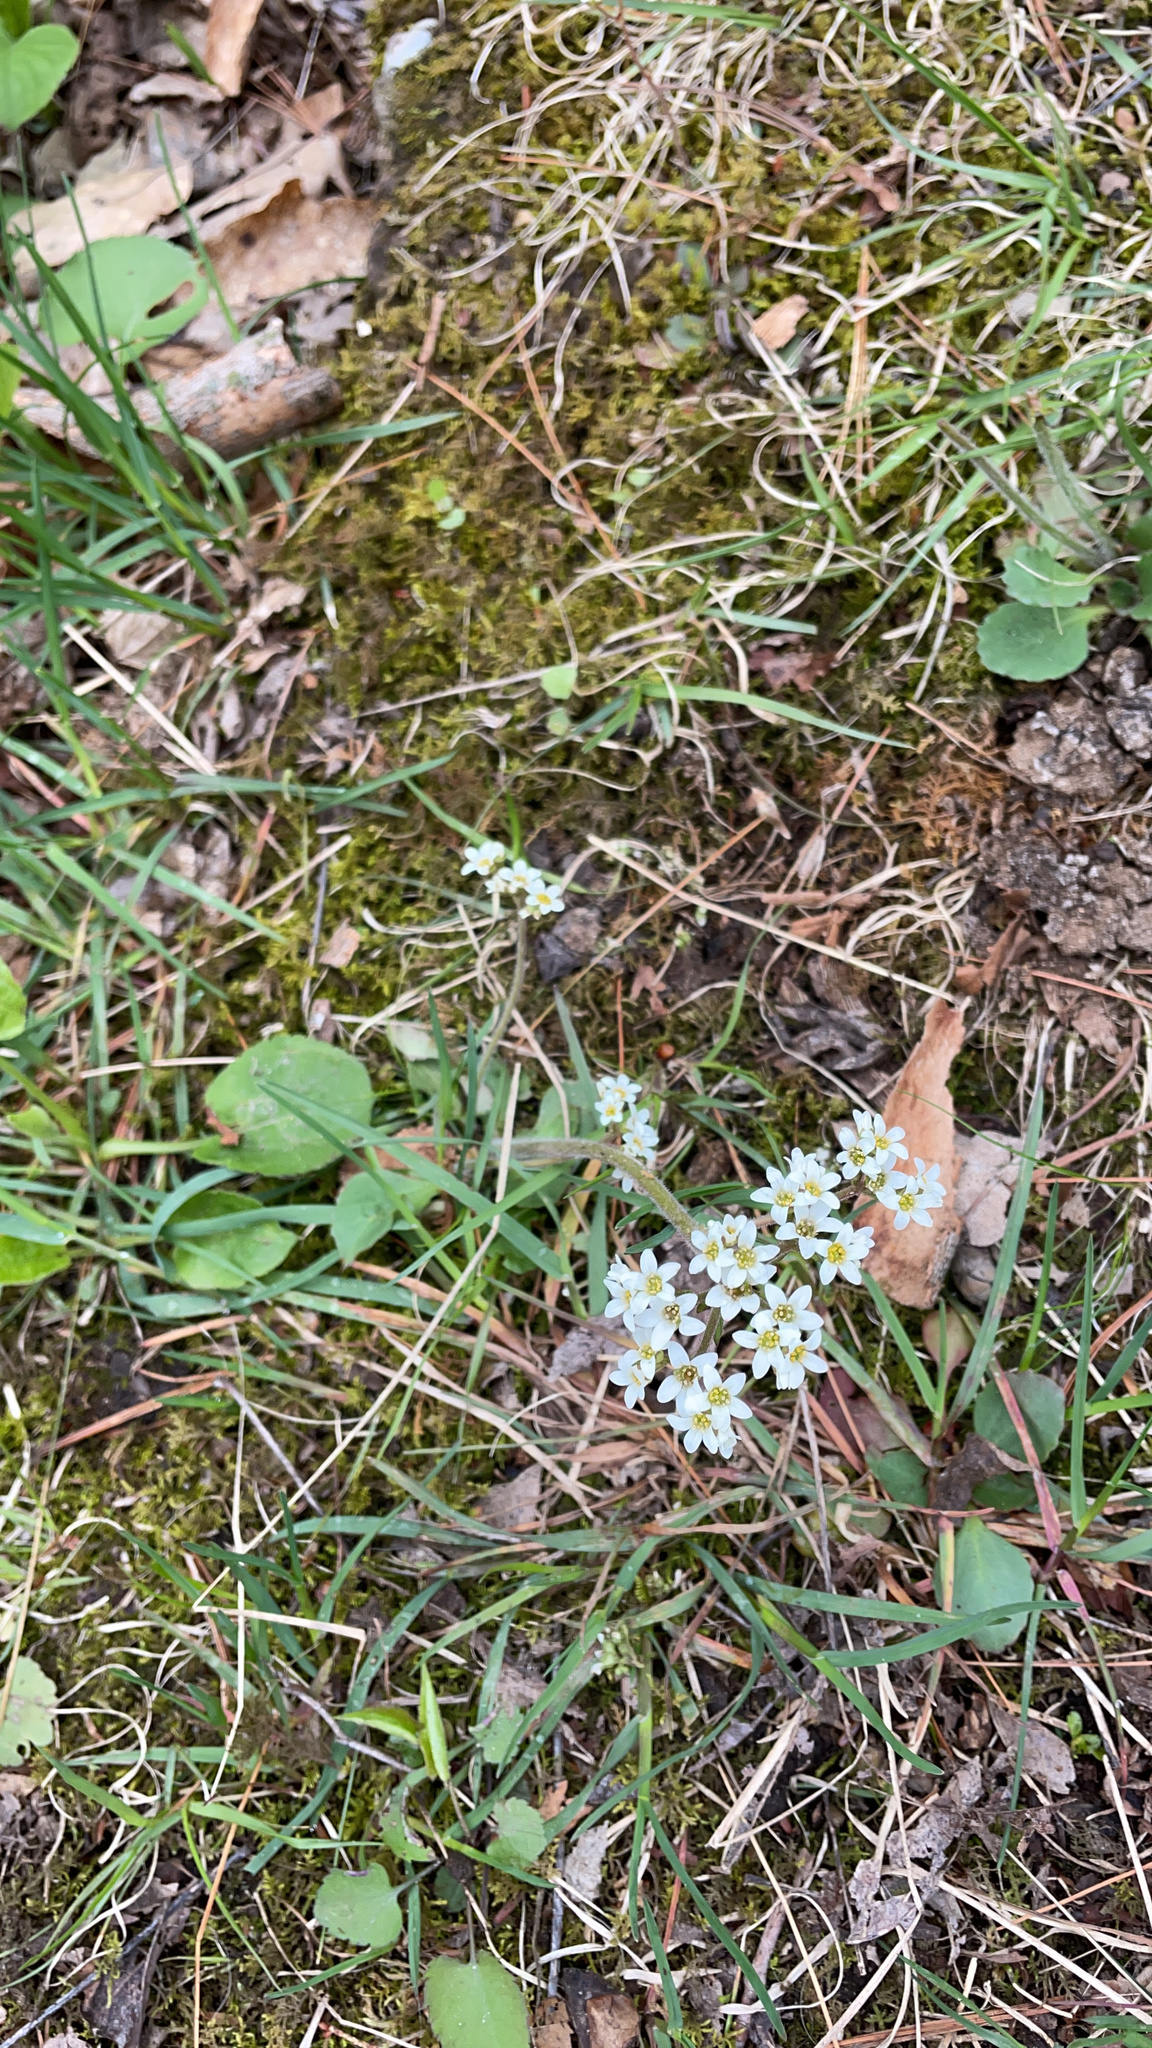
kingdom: Plantae
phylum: Tracheophyta
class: Magnoliopsida
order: Saxifragales
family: Saxifragaceae
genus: Micranthes
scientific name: Micranthes virginiensis
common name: Early saxifrage
